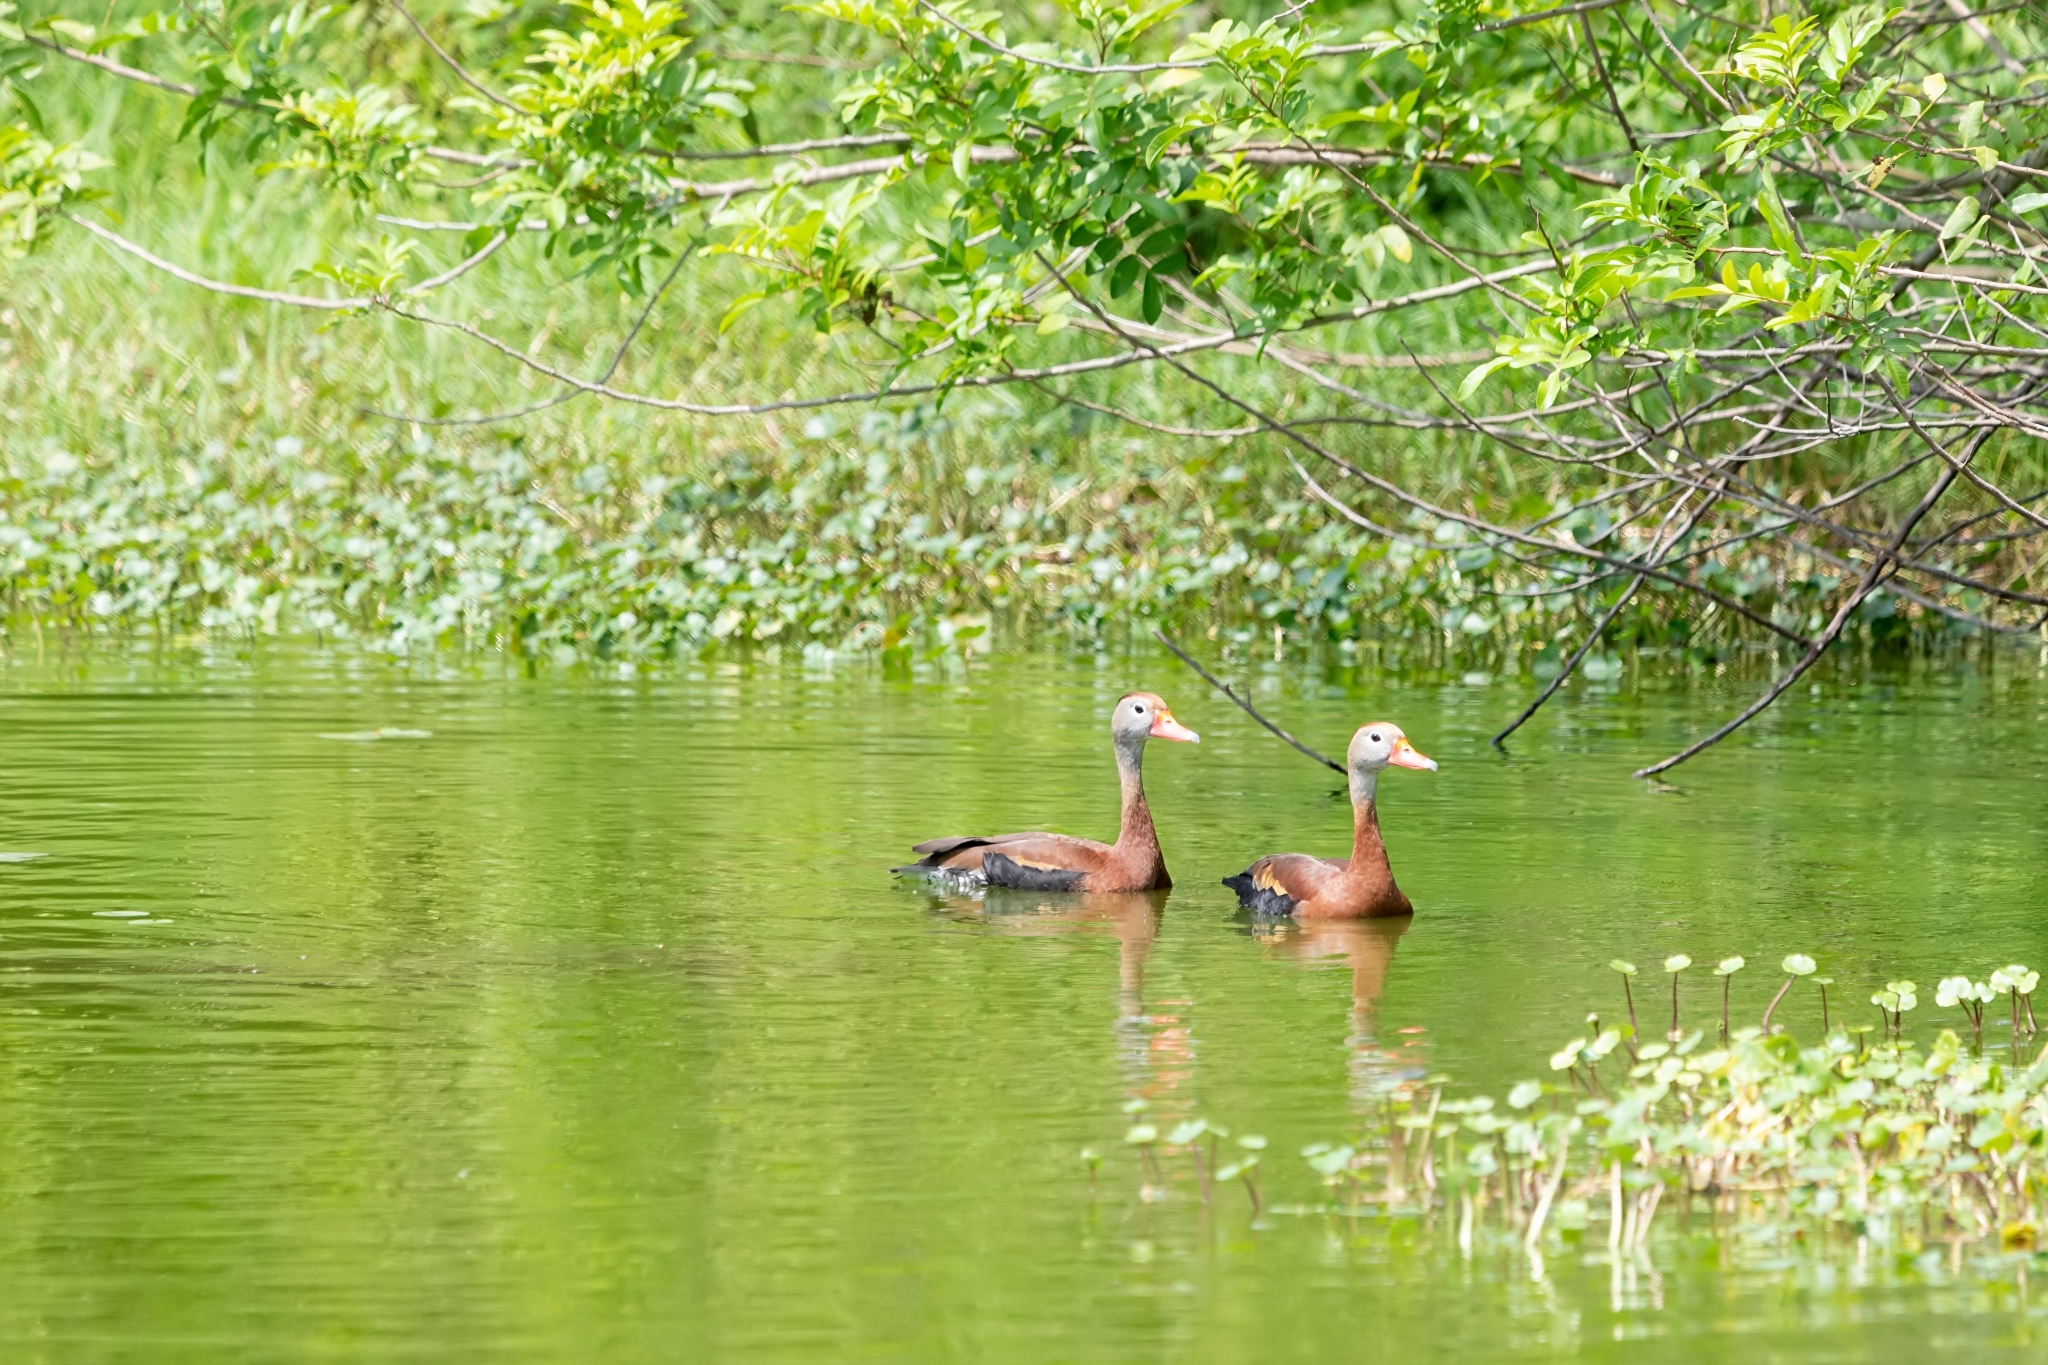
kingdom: Animalia
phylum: Chordata
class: Aves
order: Anseriformes
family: Anatidae
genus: Dendrocygna
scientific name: Dendrocygna autumnalis
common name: Black-bellied whistling duck
